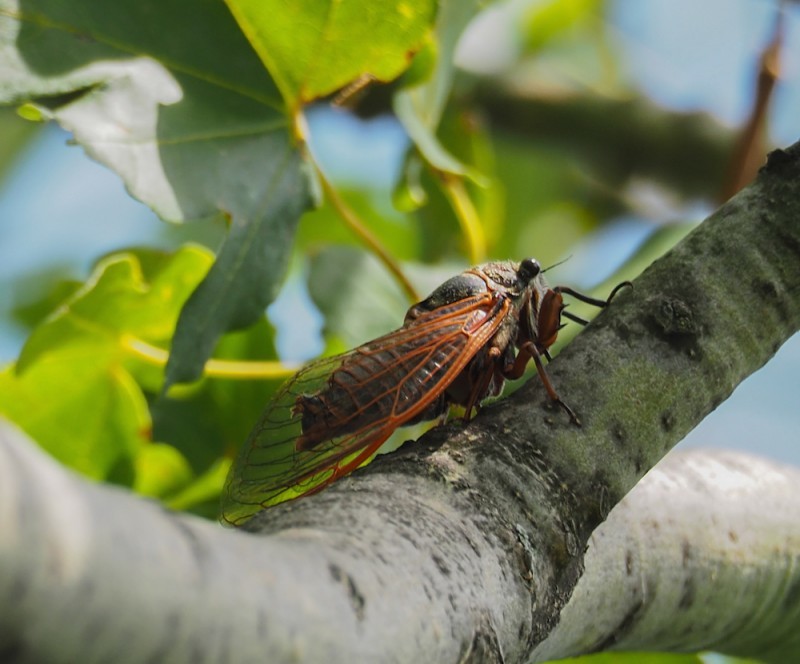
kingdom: Animalia
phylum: Arthropoda
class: Insecta
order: Hemiptera
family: Cicadidae
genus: Tibicina
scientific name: Tibicina haematodes
